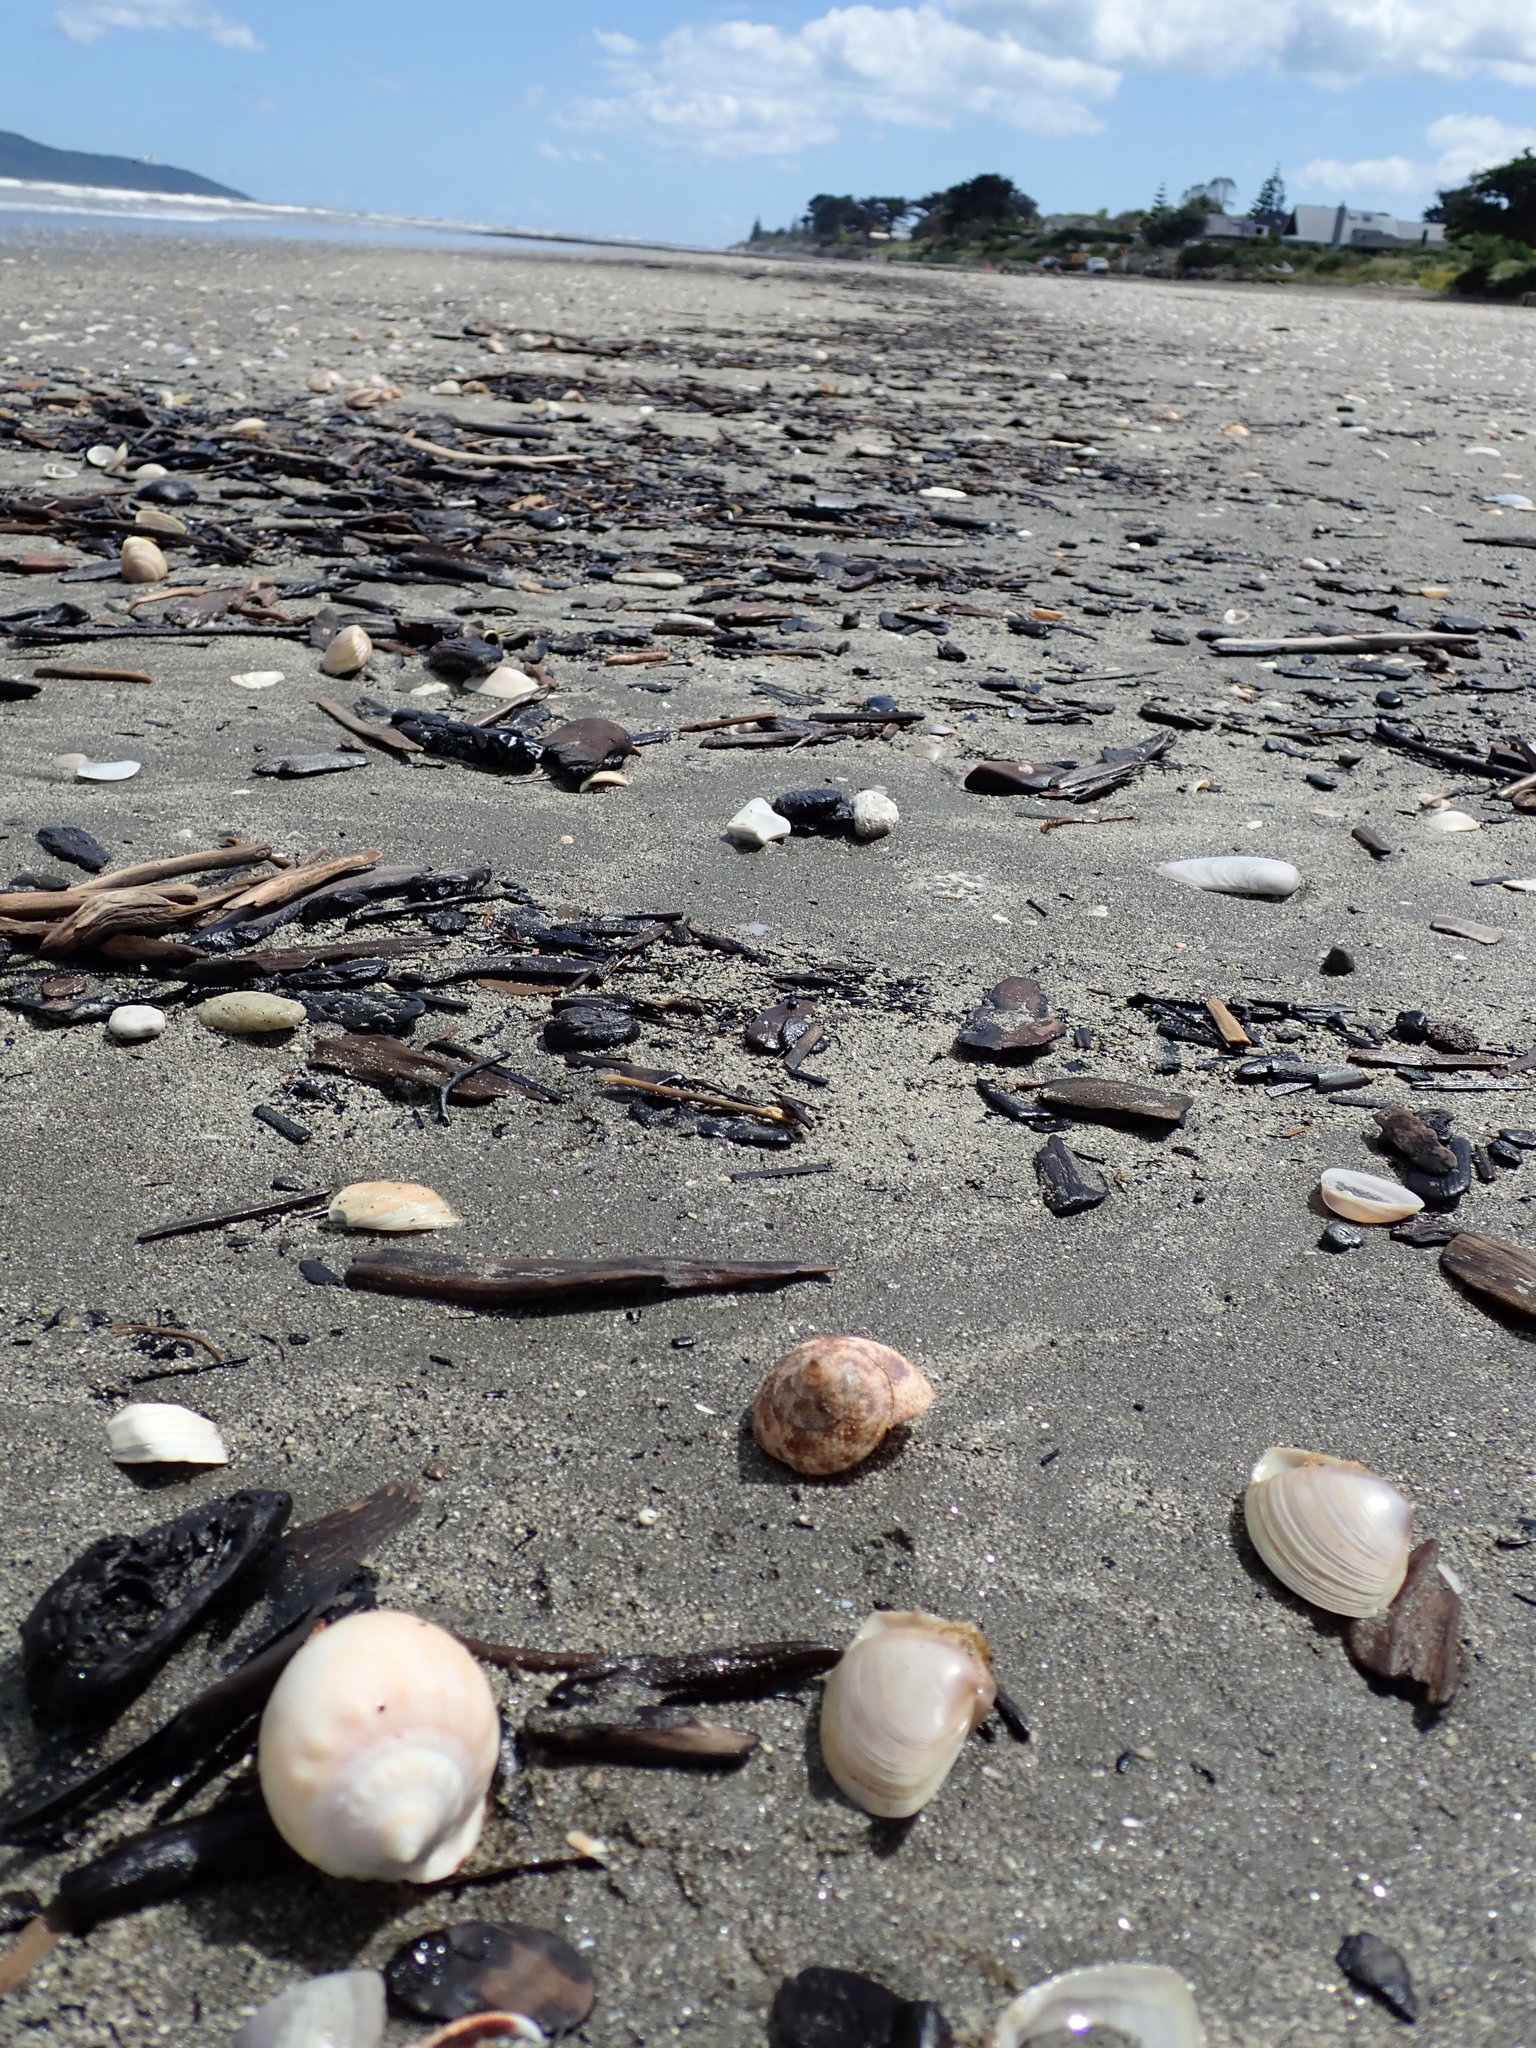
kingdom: Animalia
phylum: Mollusca
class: Gastropoda
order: Littorinimorpha
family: Cassidae
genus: Semicassis
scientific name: Semicassis pyrum
